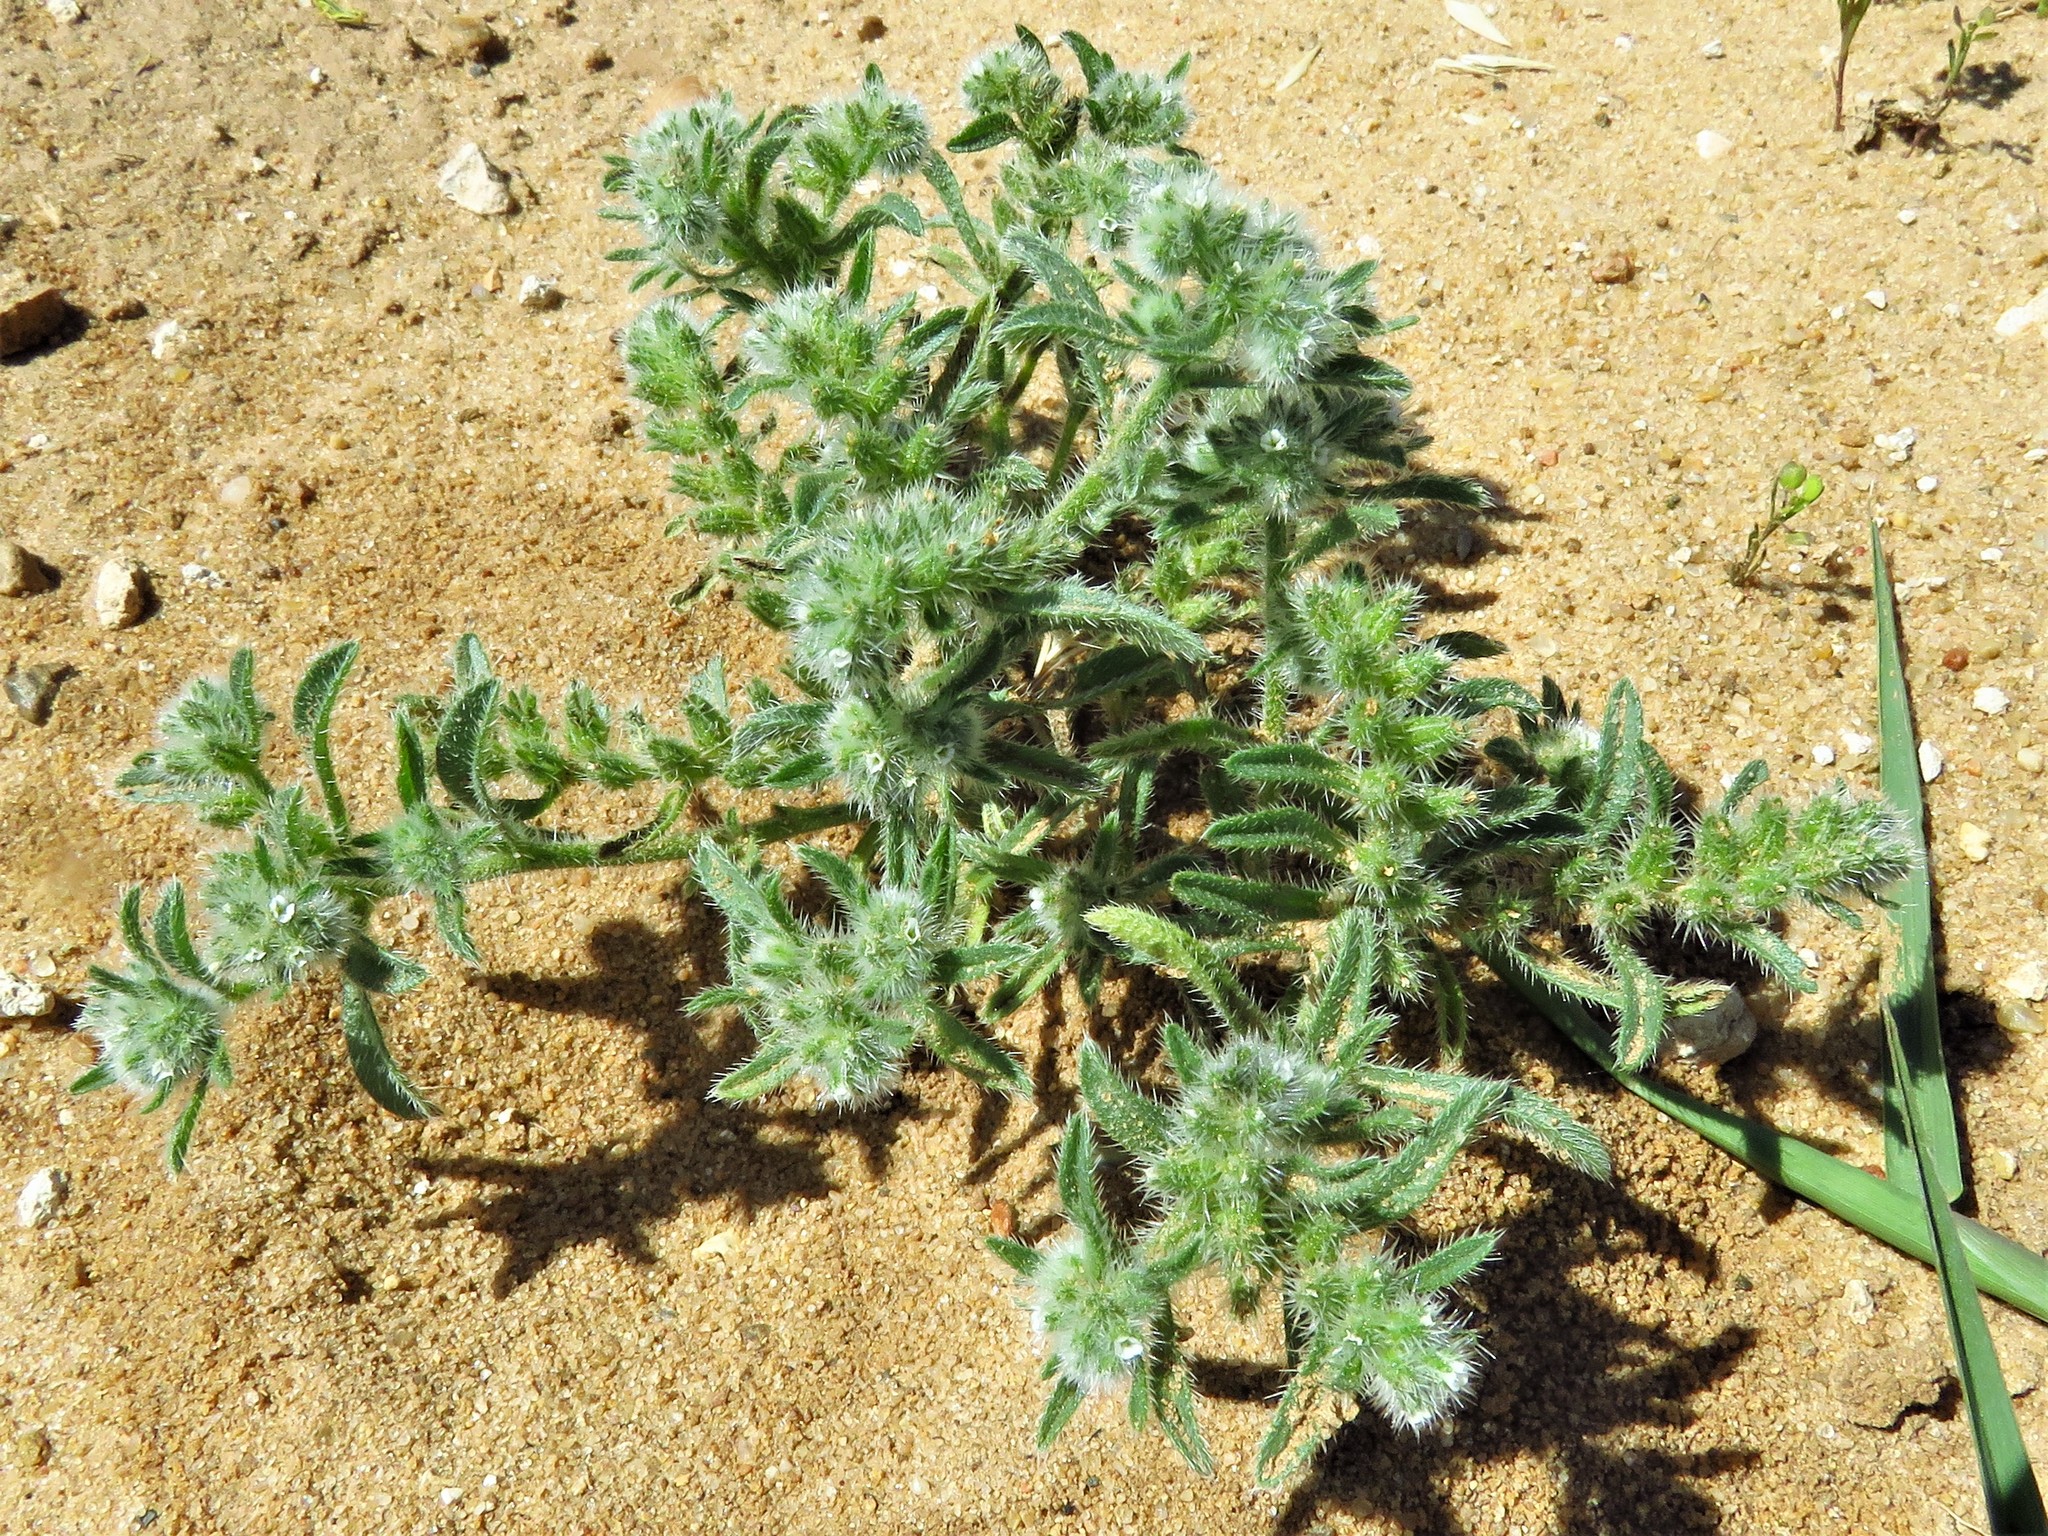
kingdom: Plantae
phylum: Tracheophyta
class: Magnoliopsida
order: Boraginales
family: Boraginaceae
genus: Cryptantha
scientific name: Cryptantha minima
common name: Little cat's-eye
